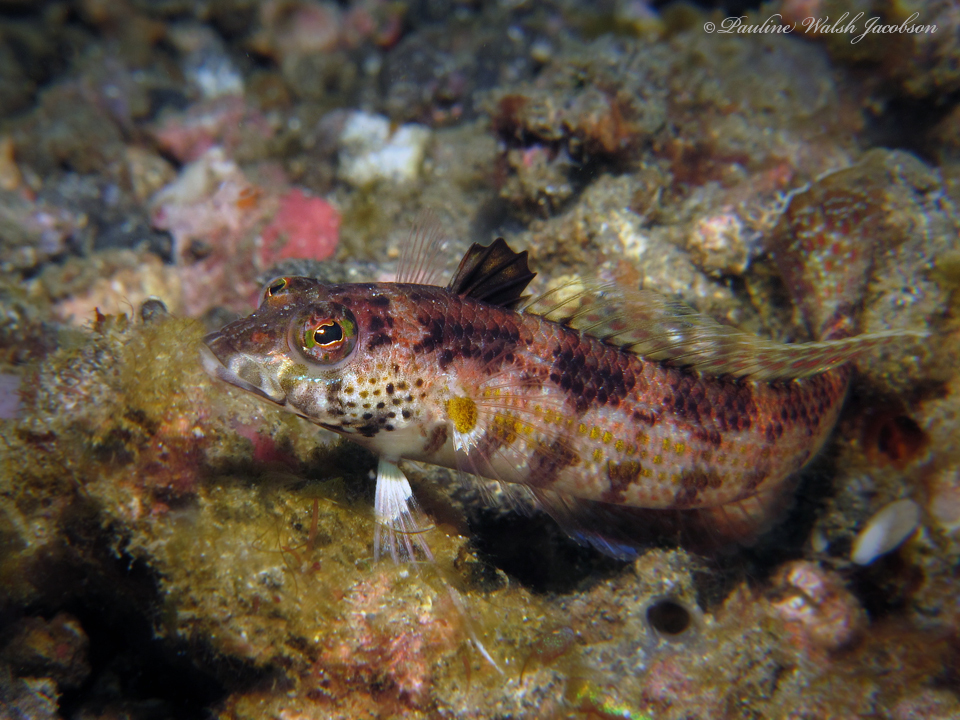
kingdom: Animalia
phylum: Chordata
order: Perciformes
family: Pinguipedidae
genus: Parapercis
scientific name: Parapercis snyderi
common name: U-mark sandperch
